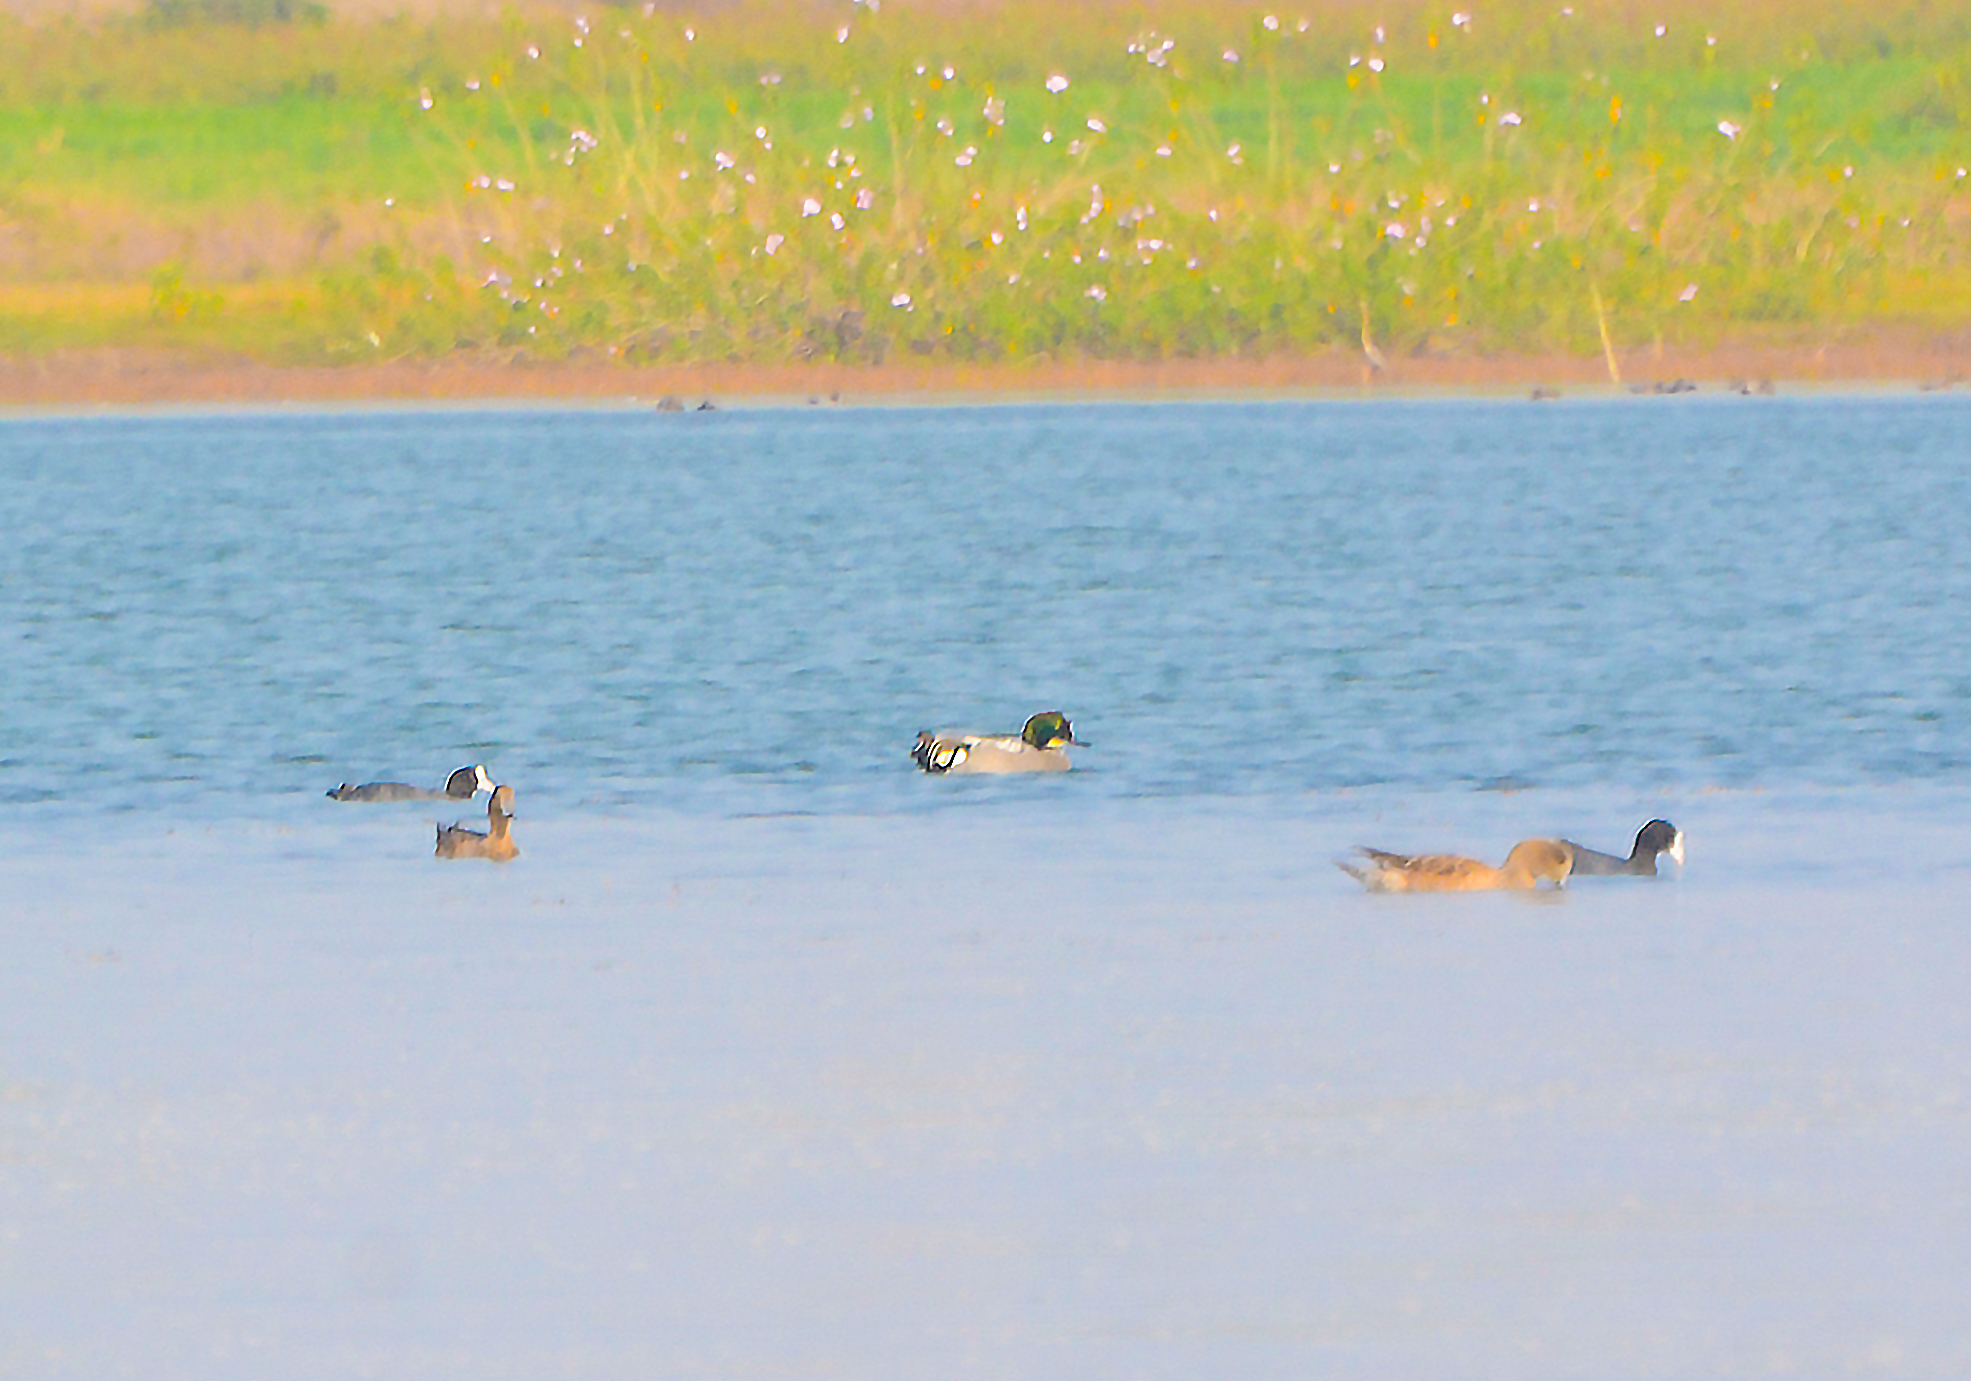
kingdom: Animalia
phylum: Chordata
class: Aves
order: Anseriformes
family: Anatidae
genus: Mareca
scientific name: Mareca falcata
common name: Falcated duck
